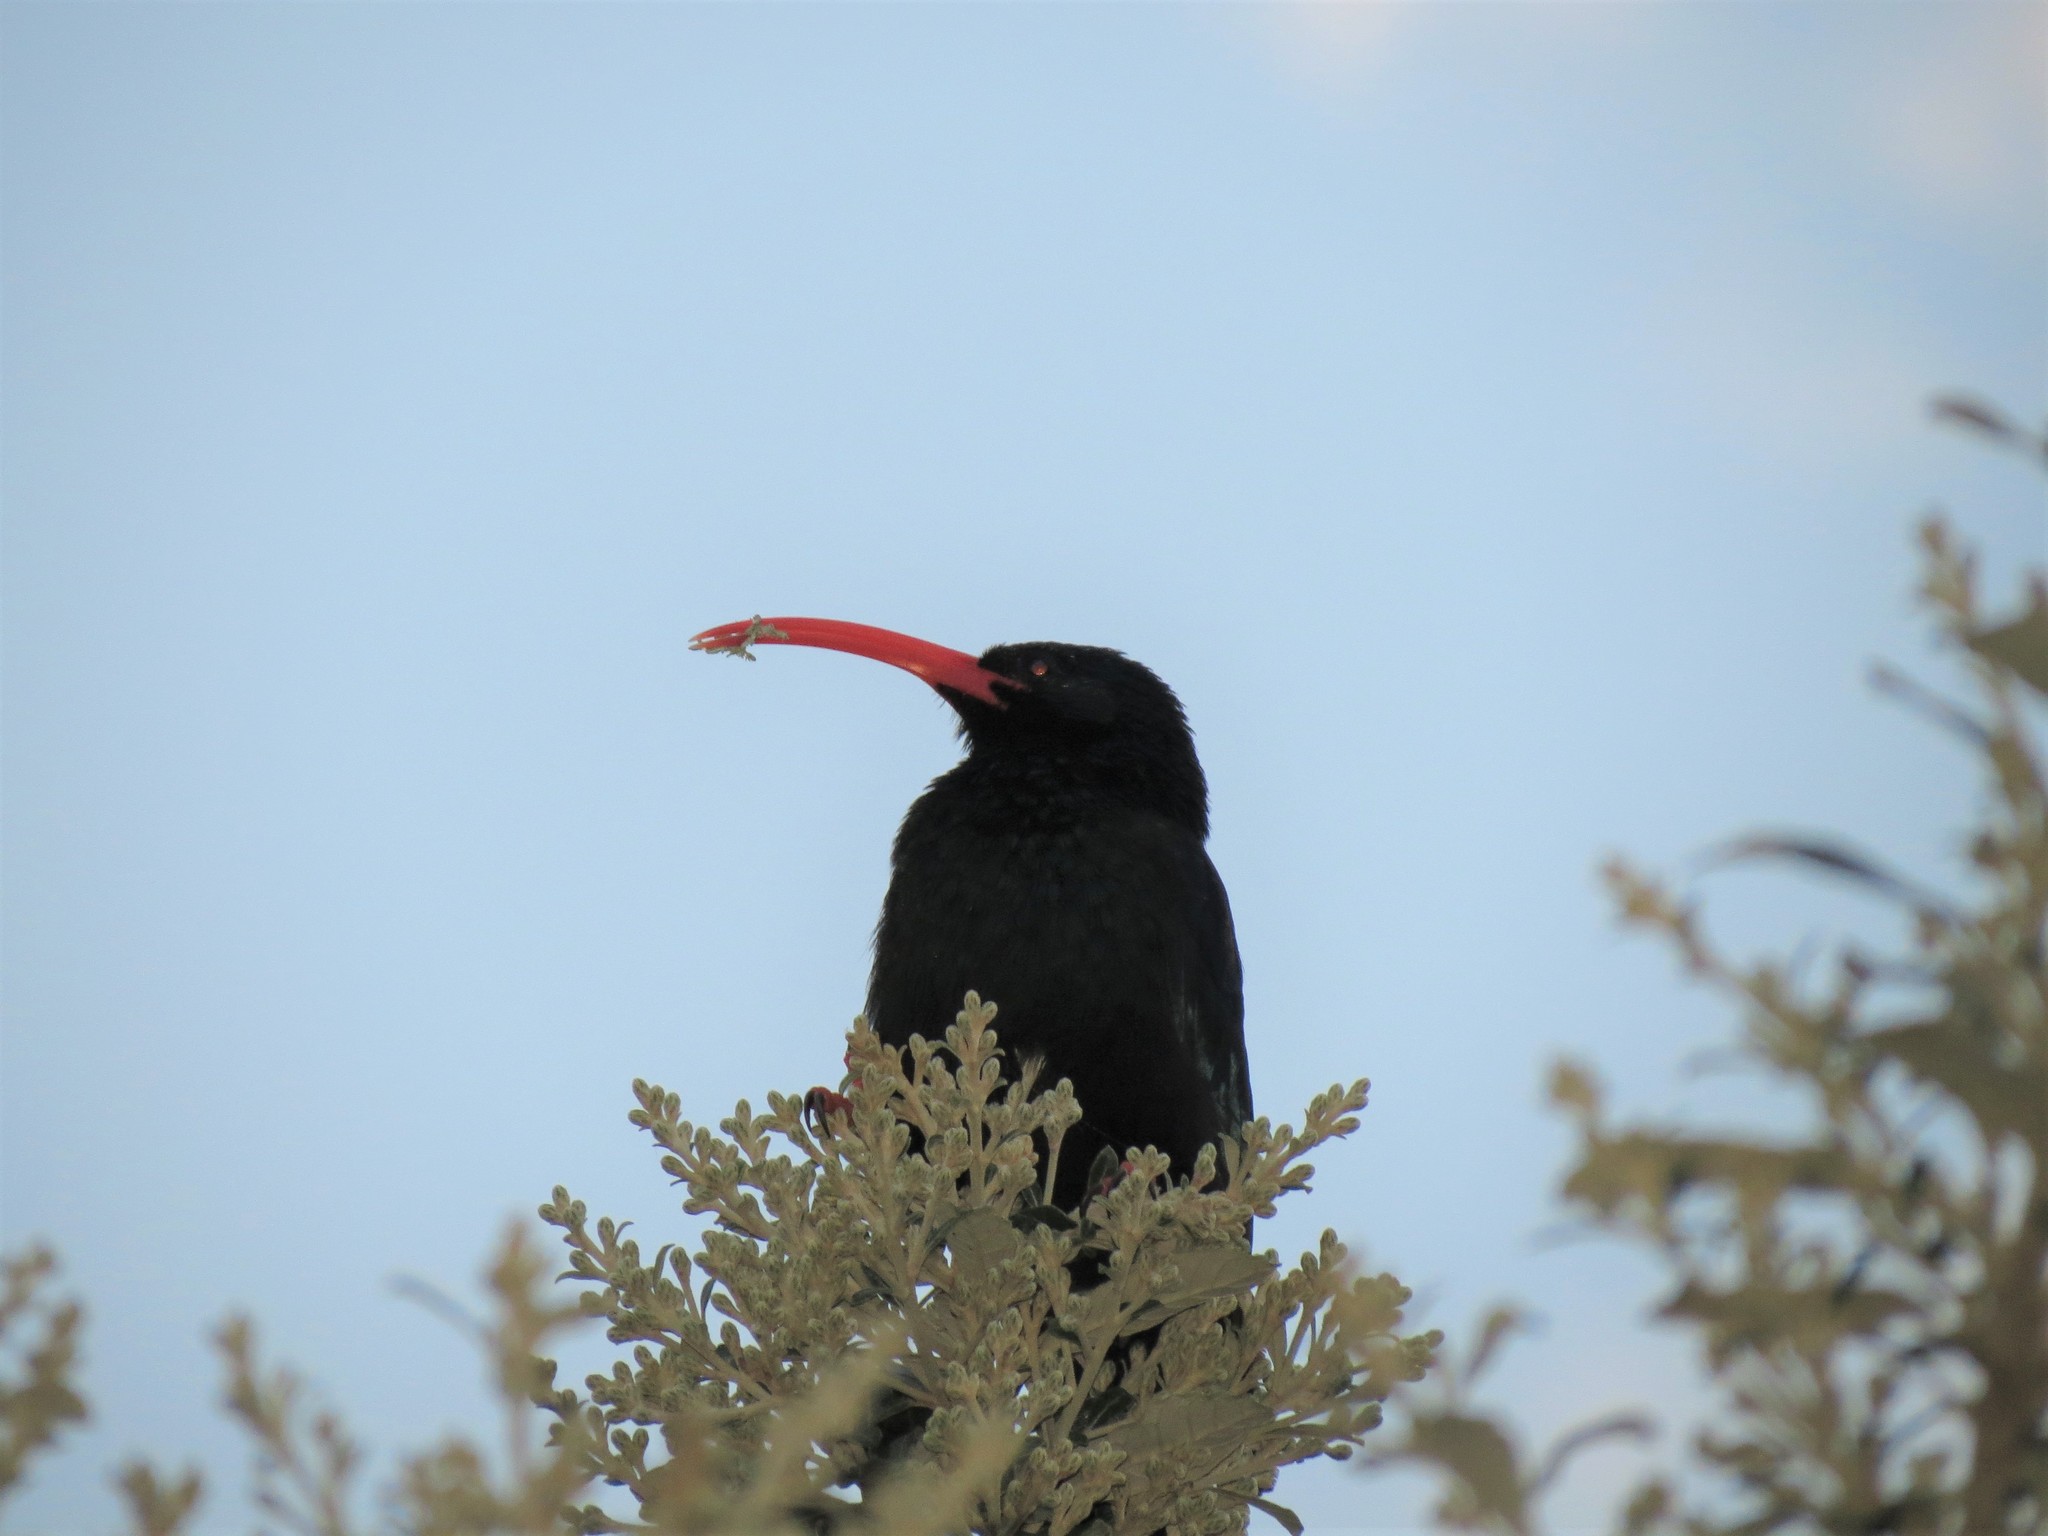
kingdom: Animalia
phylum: Chordata
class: Aves
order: Bucerotiformes
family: Phoeniculidae
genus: Phoeniculus
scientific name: Phoeniculus purpureus
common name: Green woodhoopoe
